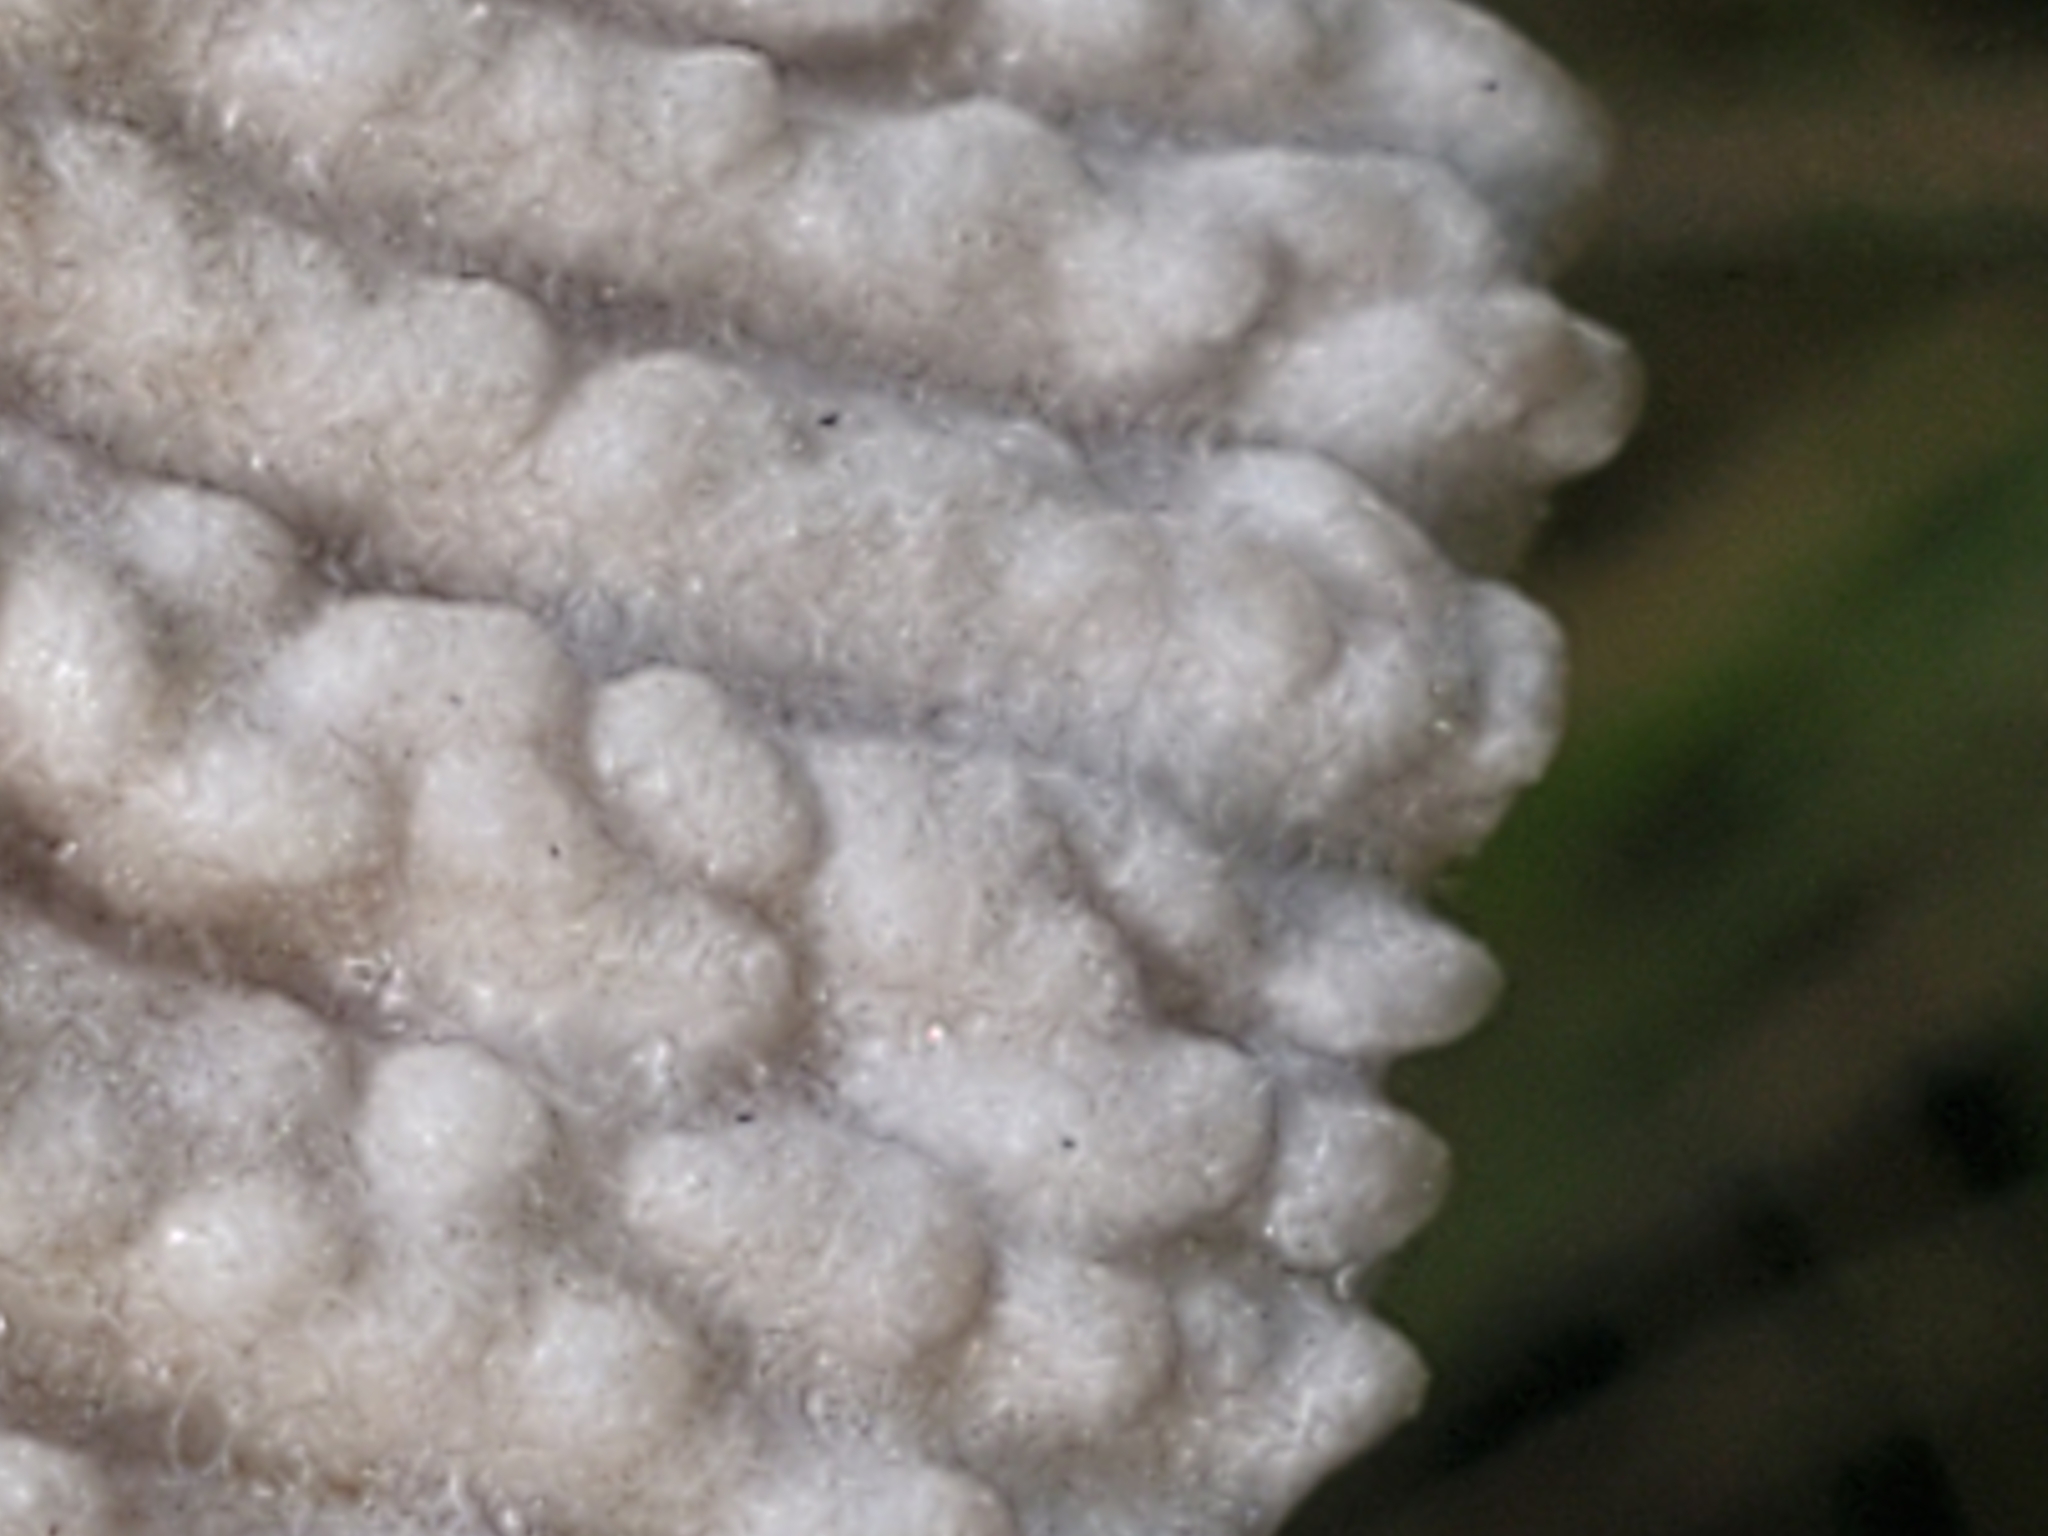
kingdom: Fungi
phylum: Basidiomycota
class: Agaricomycetes
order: Agaricales
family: Amanitaceae
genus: Amanita
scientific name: Amanita vaginata
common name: Grisette
